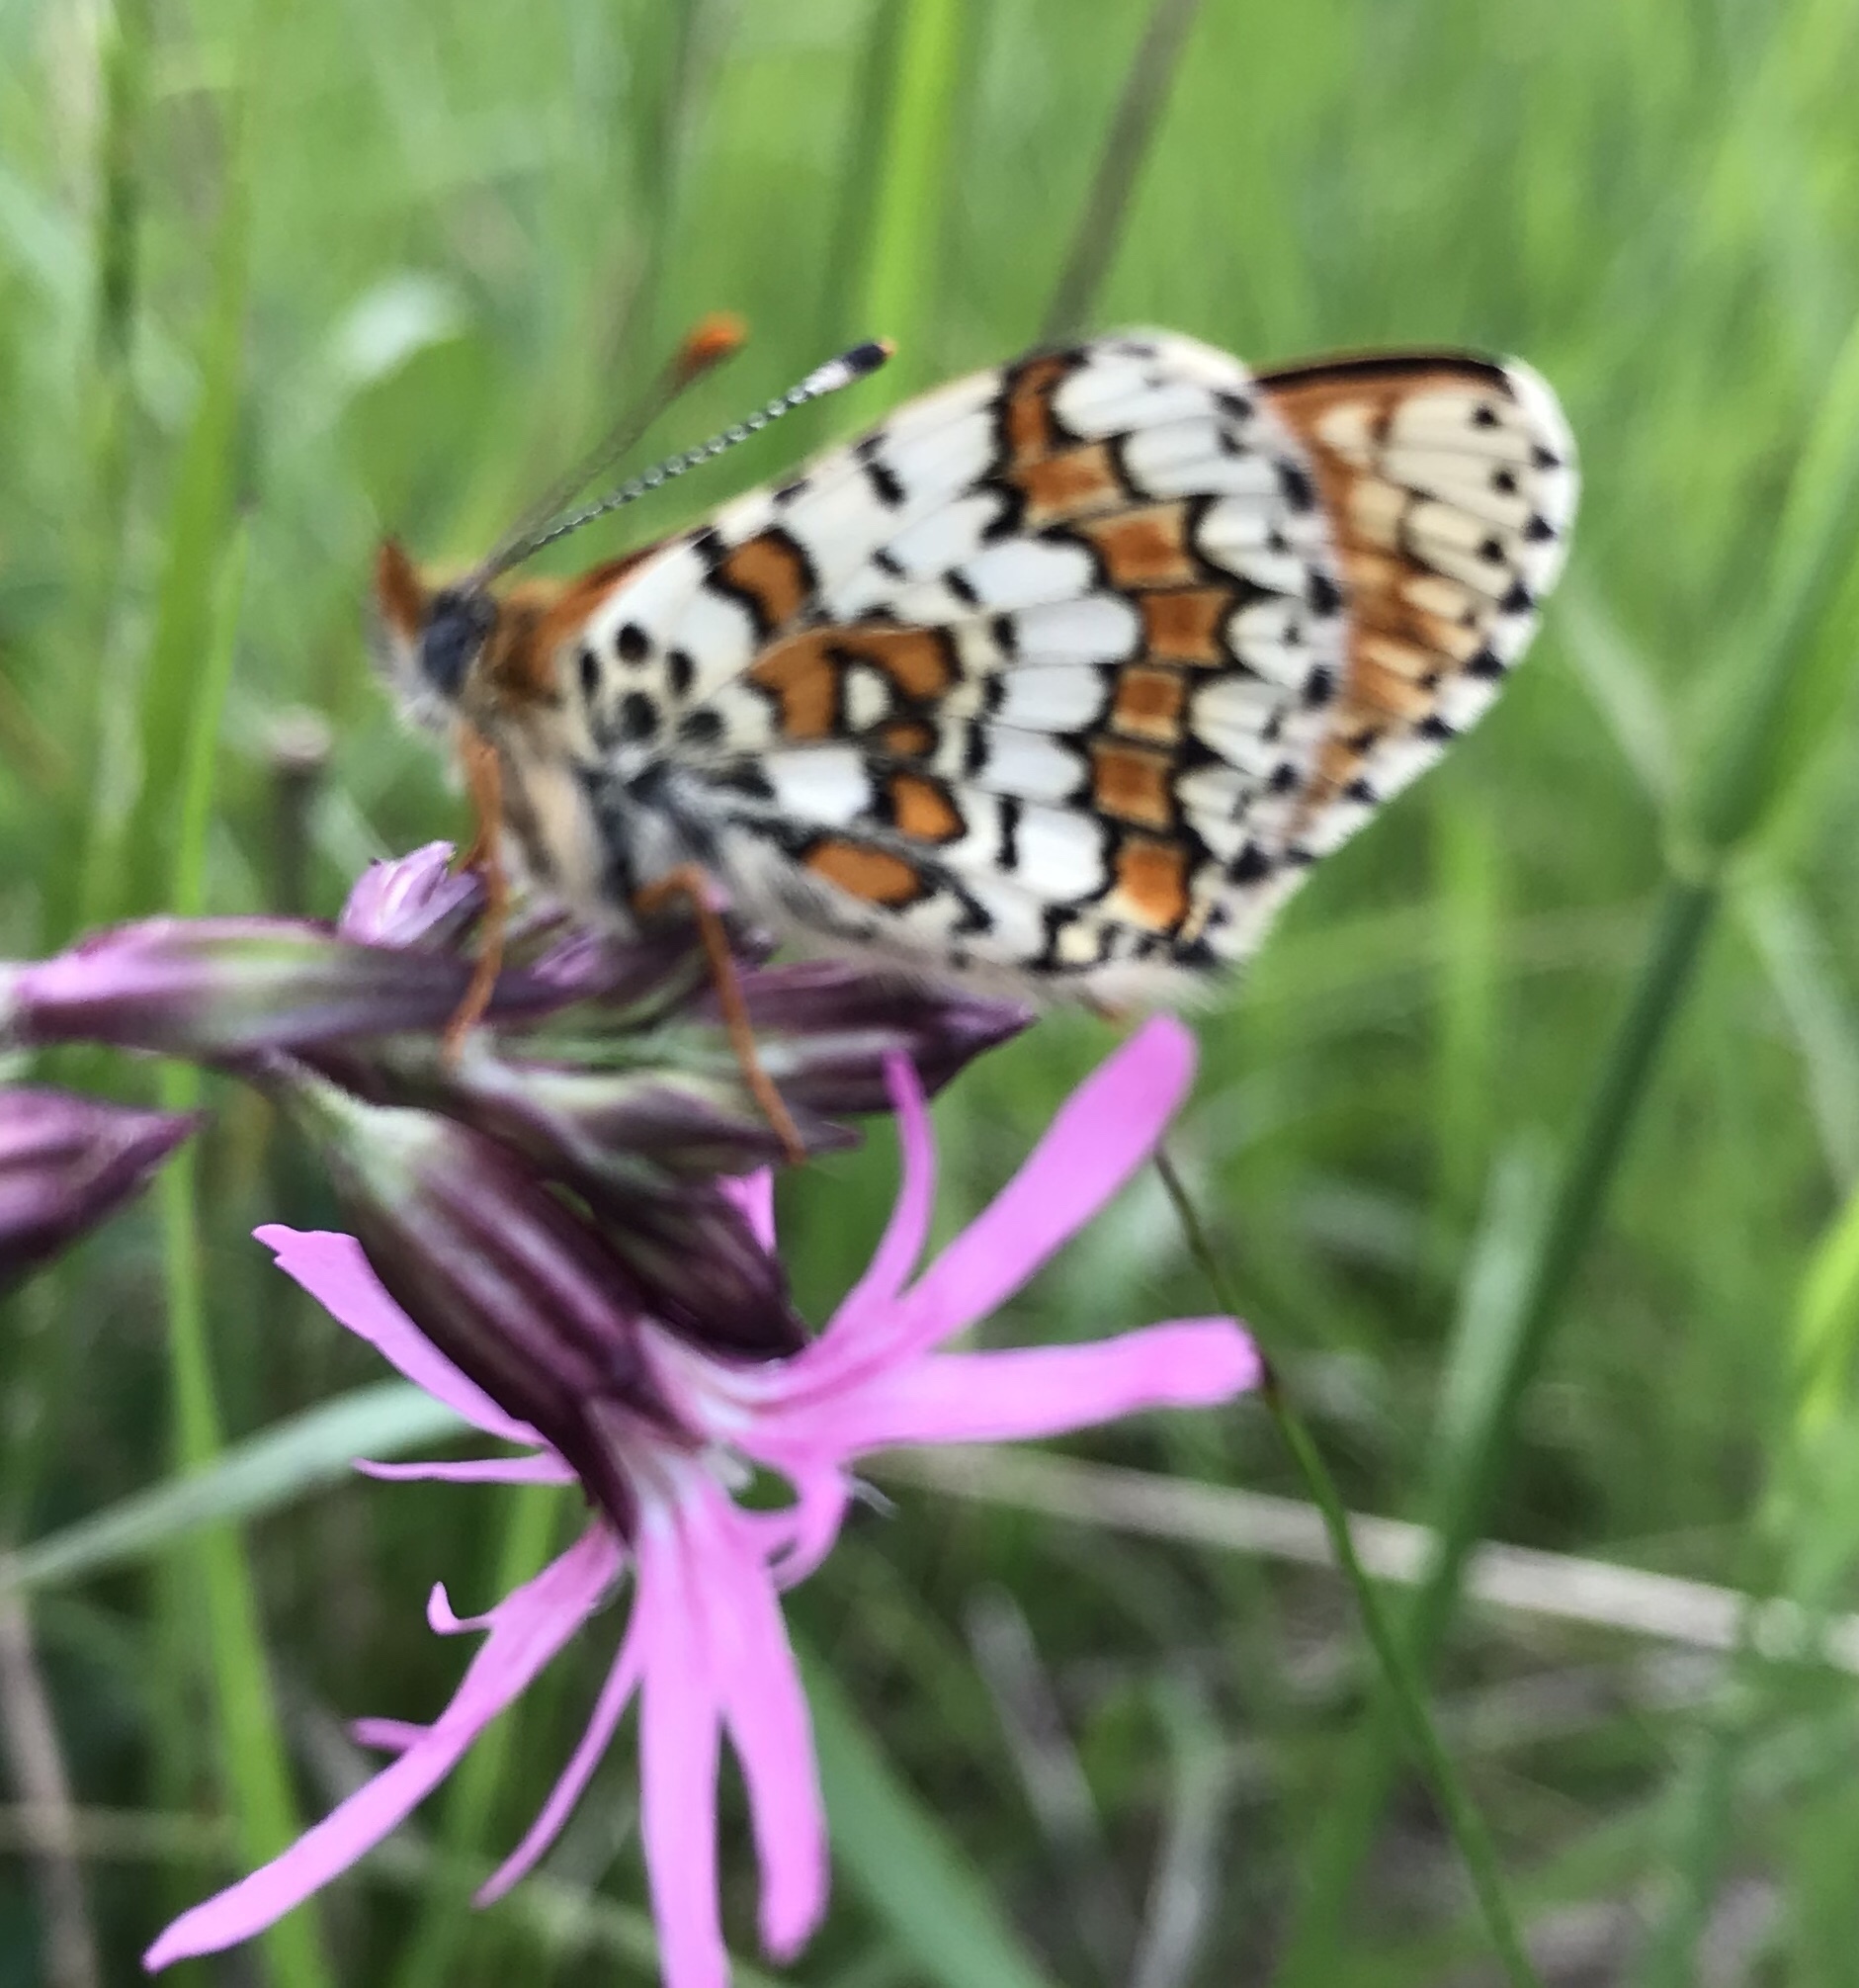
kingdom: Animalia
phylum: Arthropoda
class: Insecta
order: Lepidoptera
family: Nymphalidae
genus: Melitaea
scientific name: Melitaea cinxia
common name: Glanville fritillary
